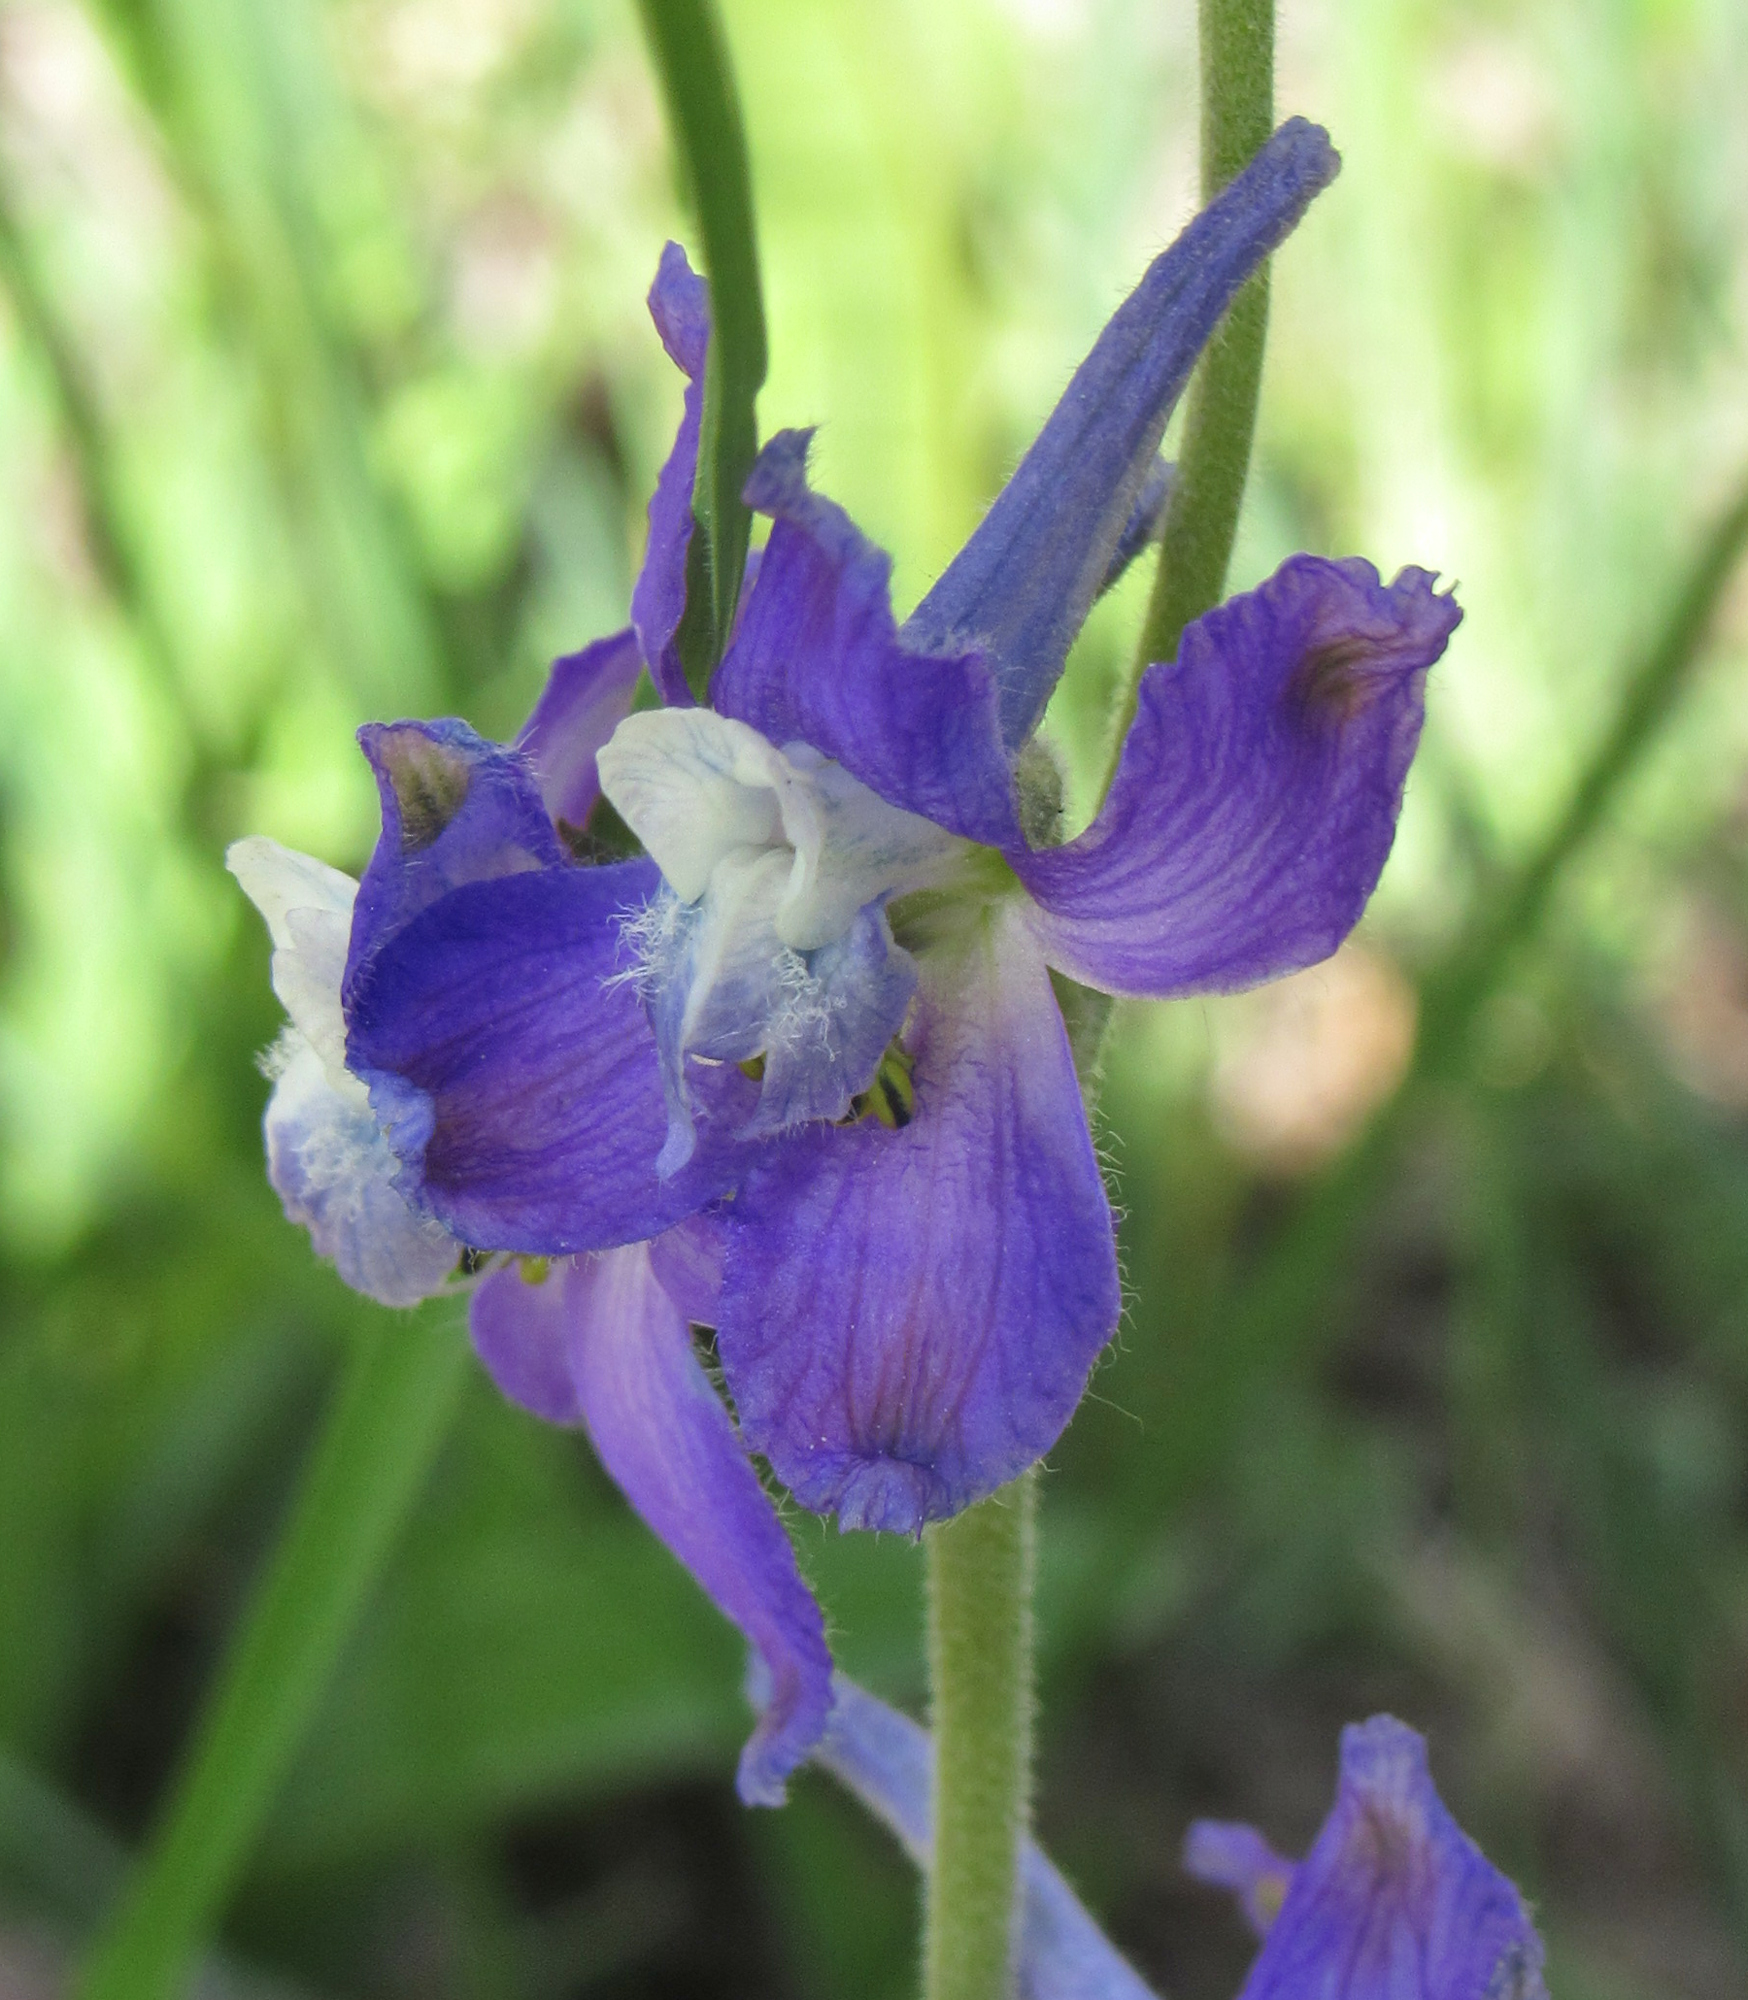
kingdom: Plantae
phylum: Tracheophyta
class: Magnoliopsida
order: Ranunculales
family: Ranunculaceae
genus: Delphinium
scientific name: Delphinium nuttallianum
